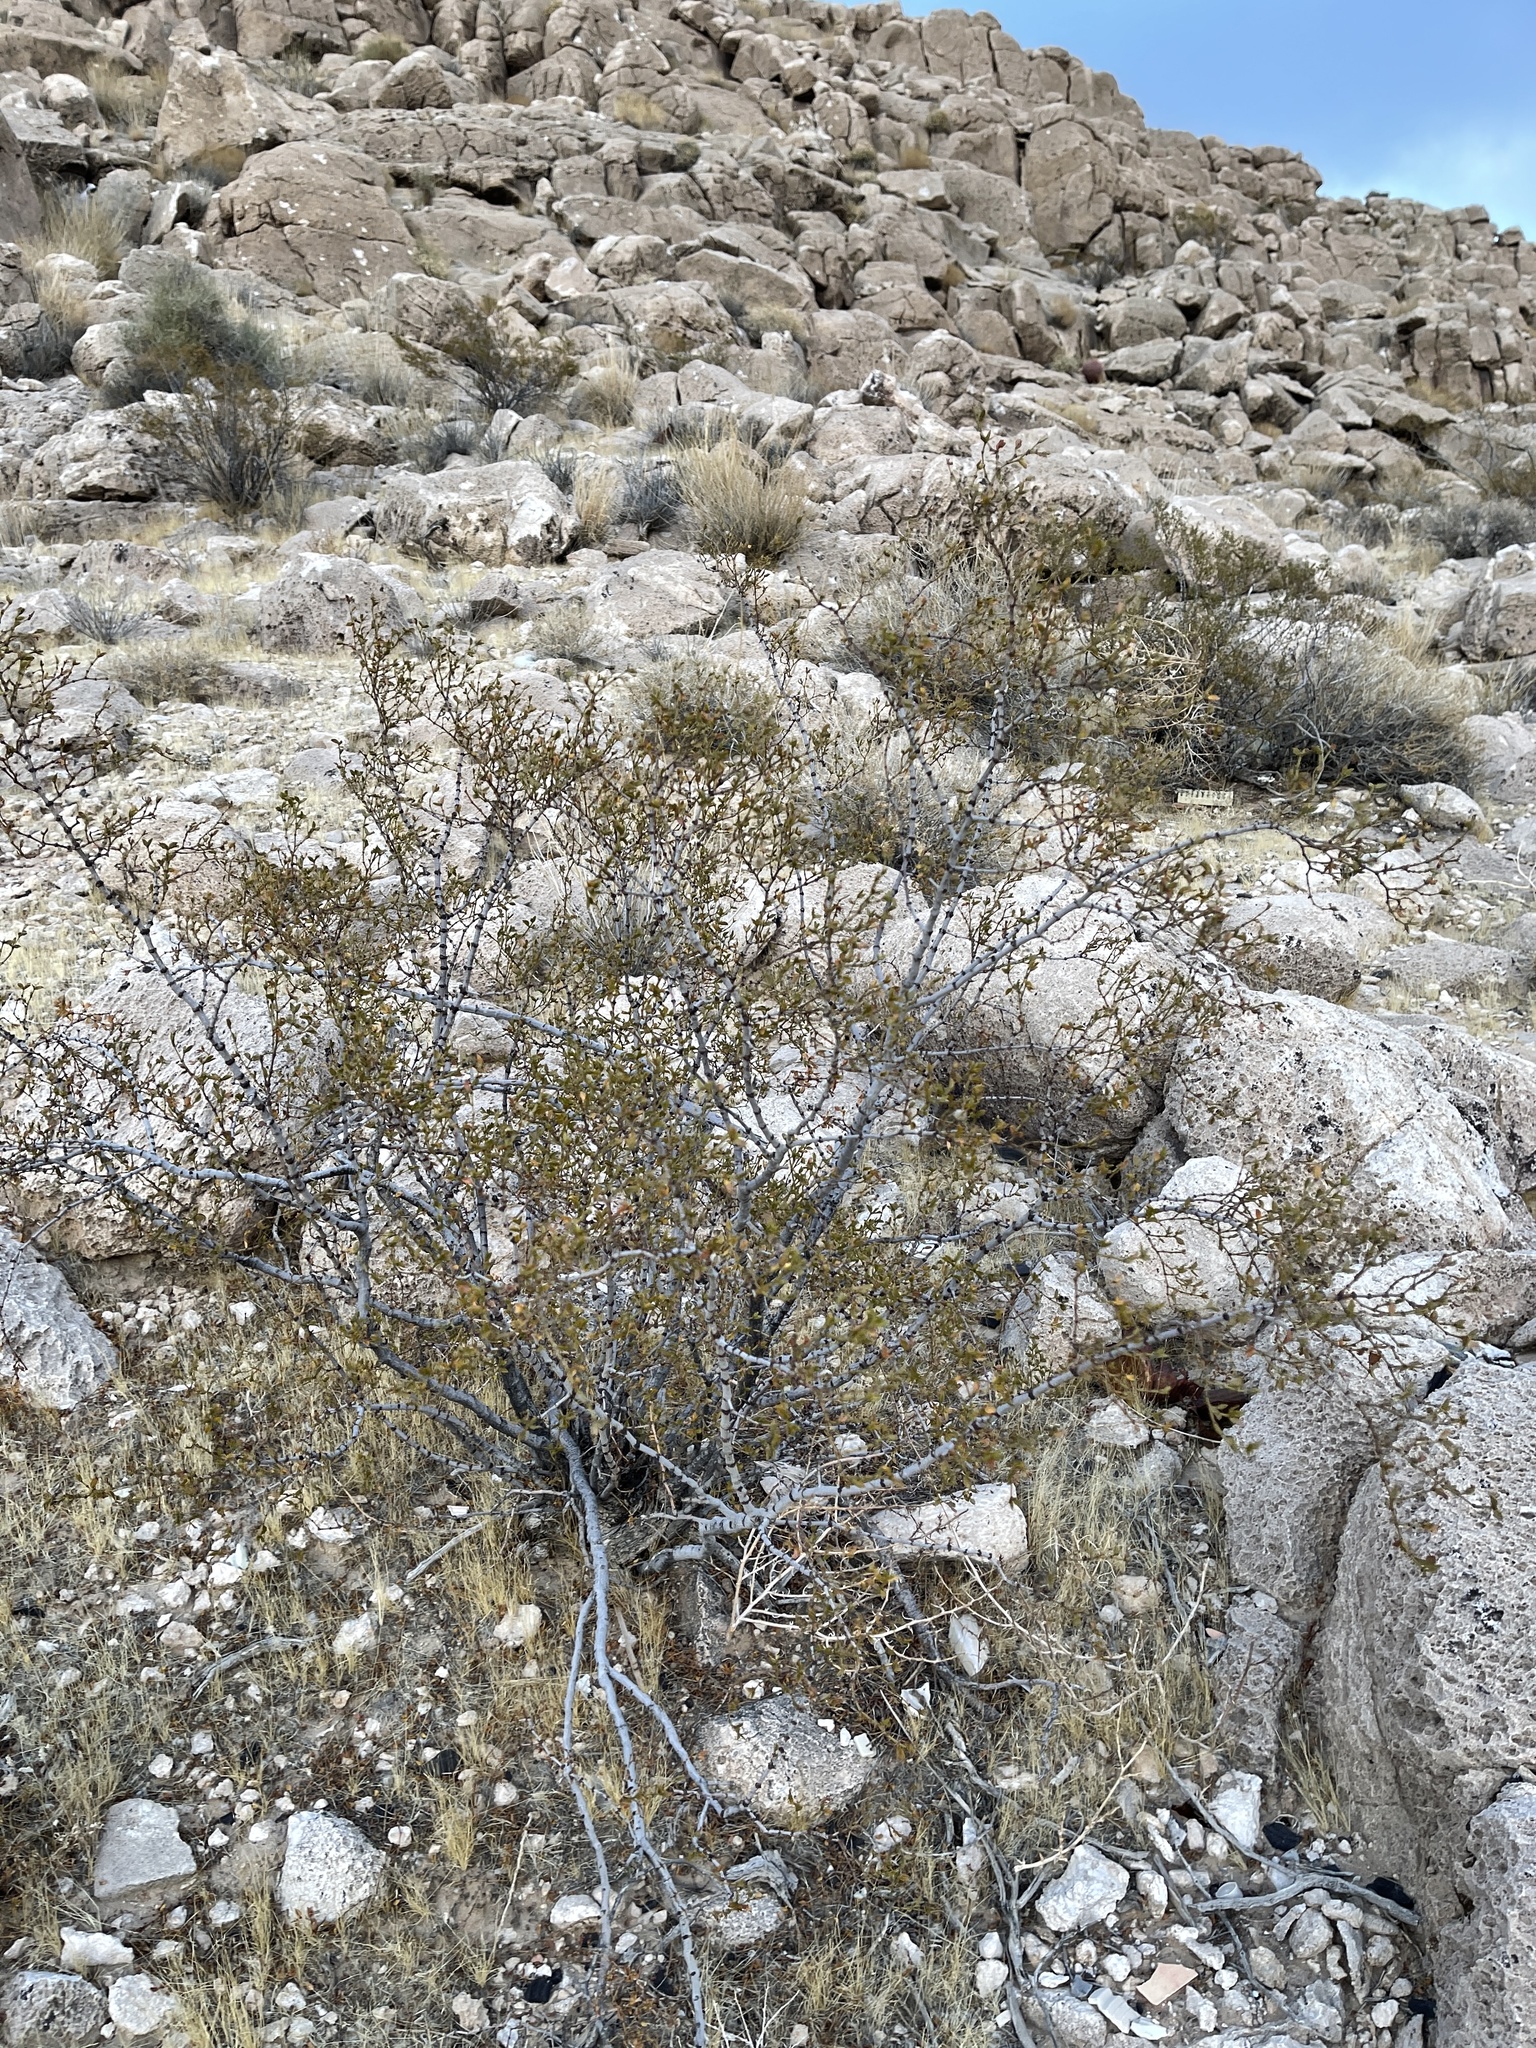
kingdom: Plantae
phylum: Tracheophyta
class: Magnoliopsida
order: Zygophyllales
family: Zygophyllaceae
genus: Larrea
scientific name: Larrea tridentata
